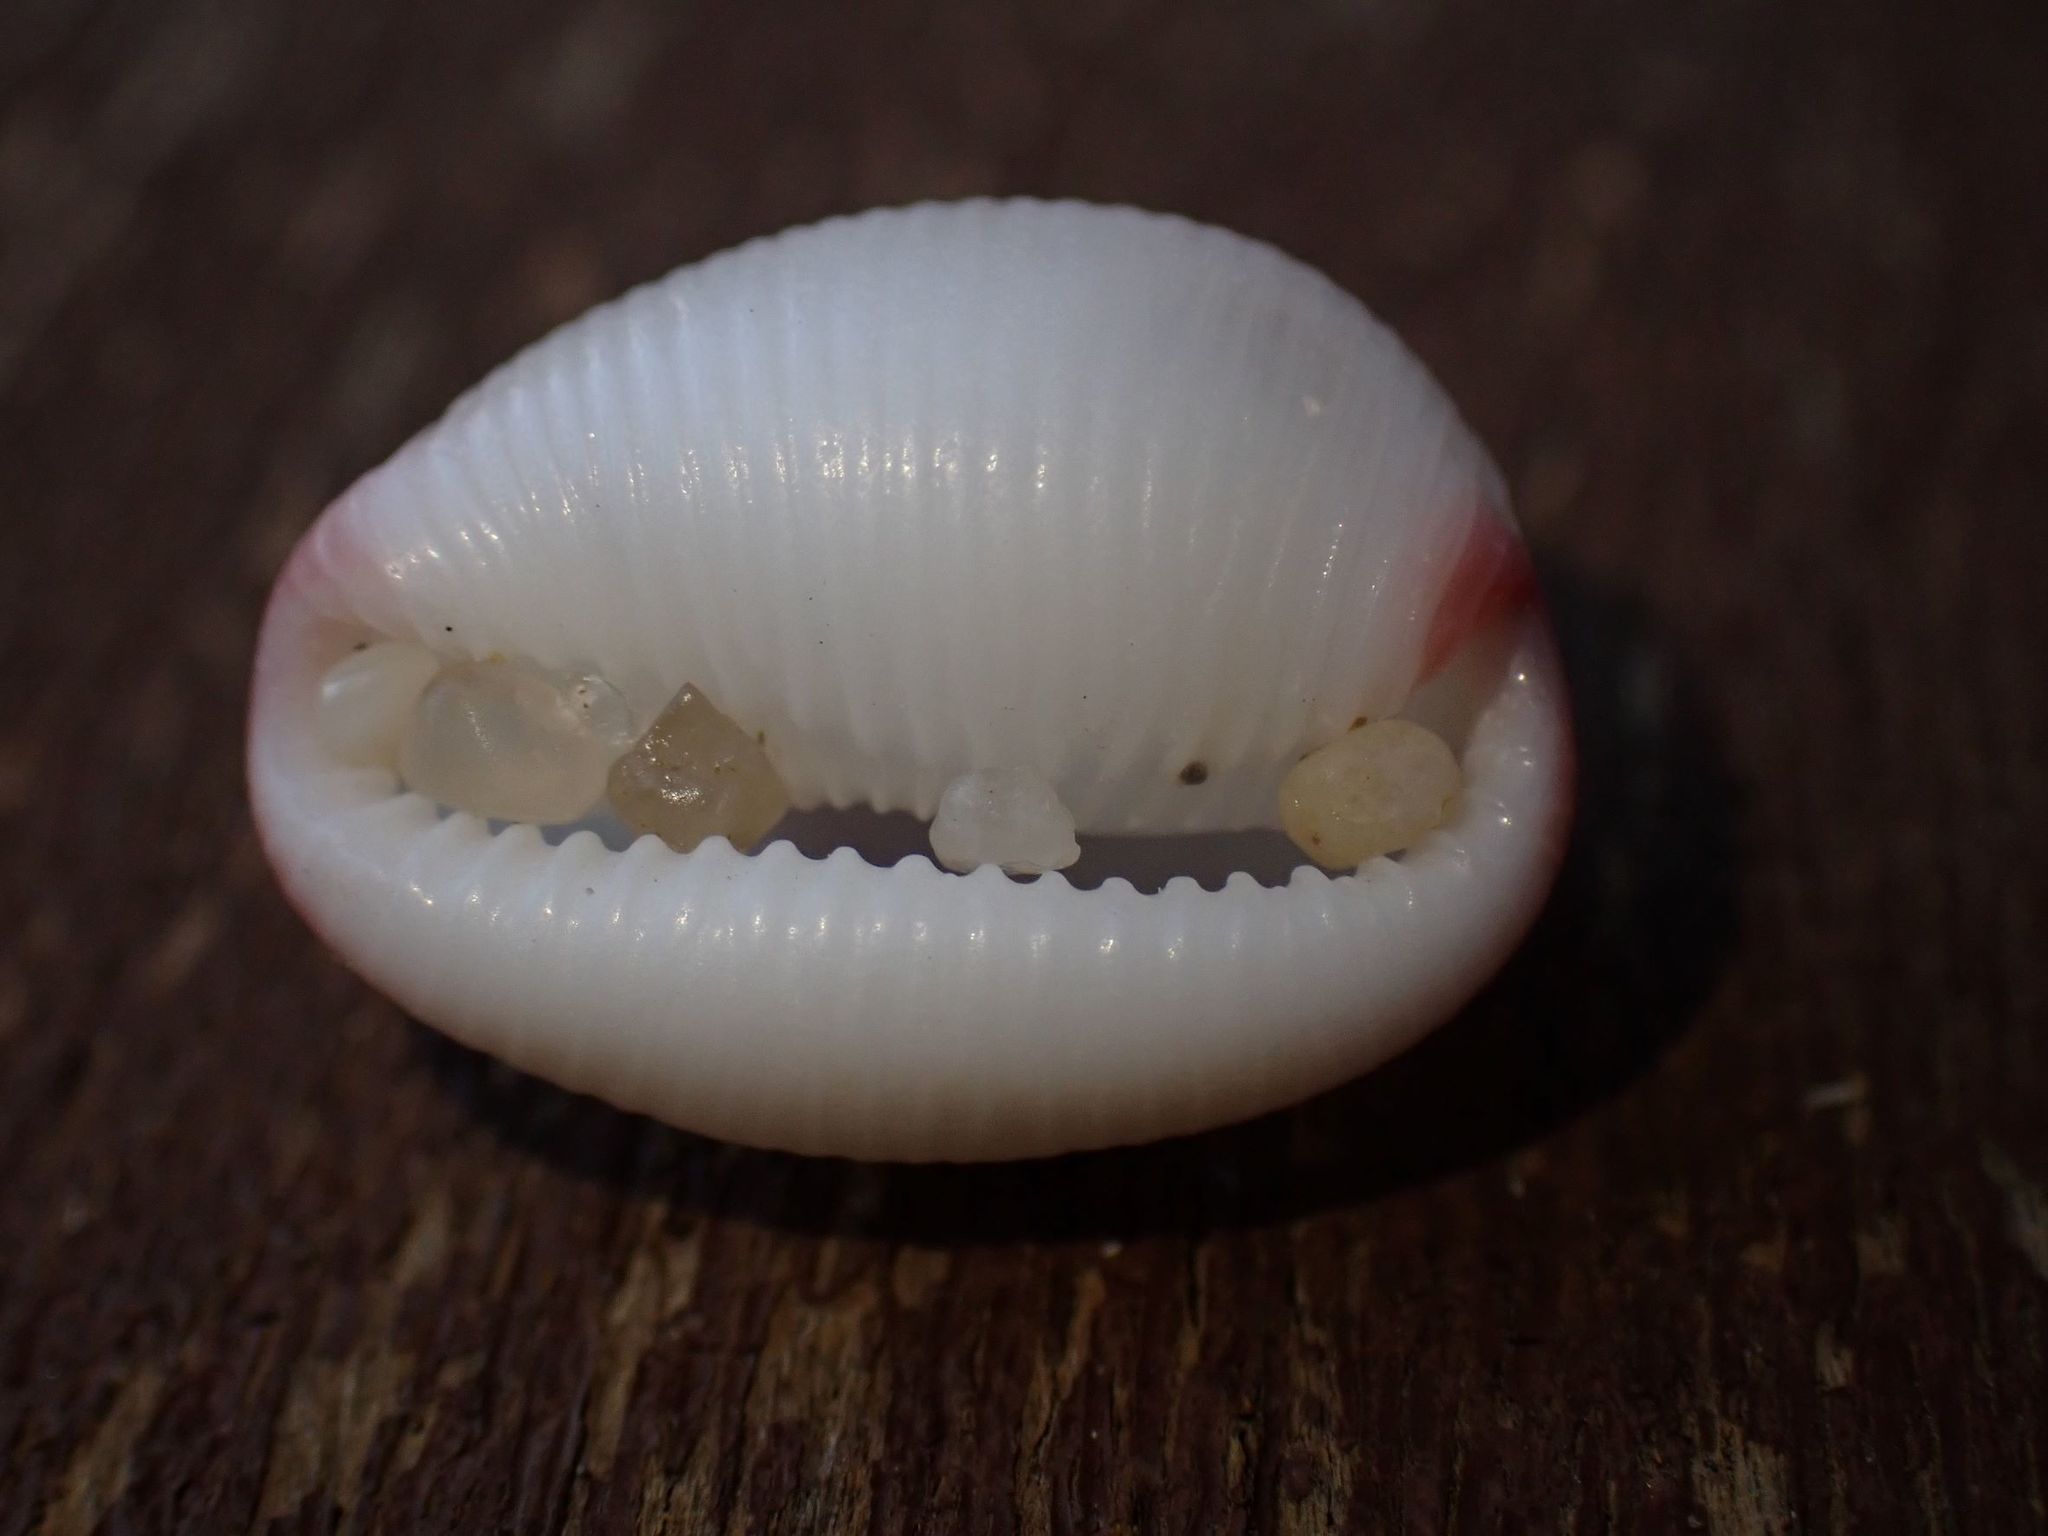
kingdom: Animalia
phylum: Mollusca
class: Gastropoda
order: Littorinimorpha
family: Triviidae
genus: Ellatrivia
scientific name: Ellatrivia merces
